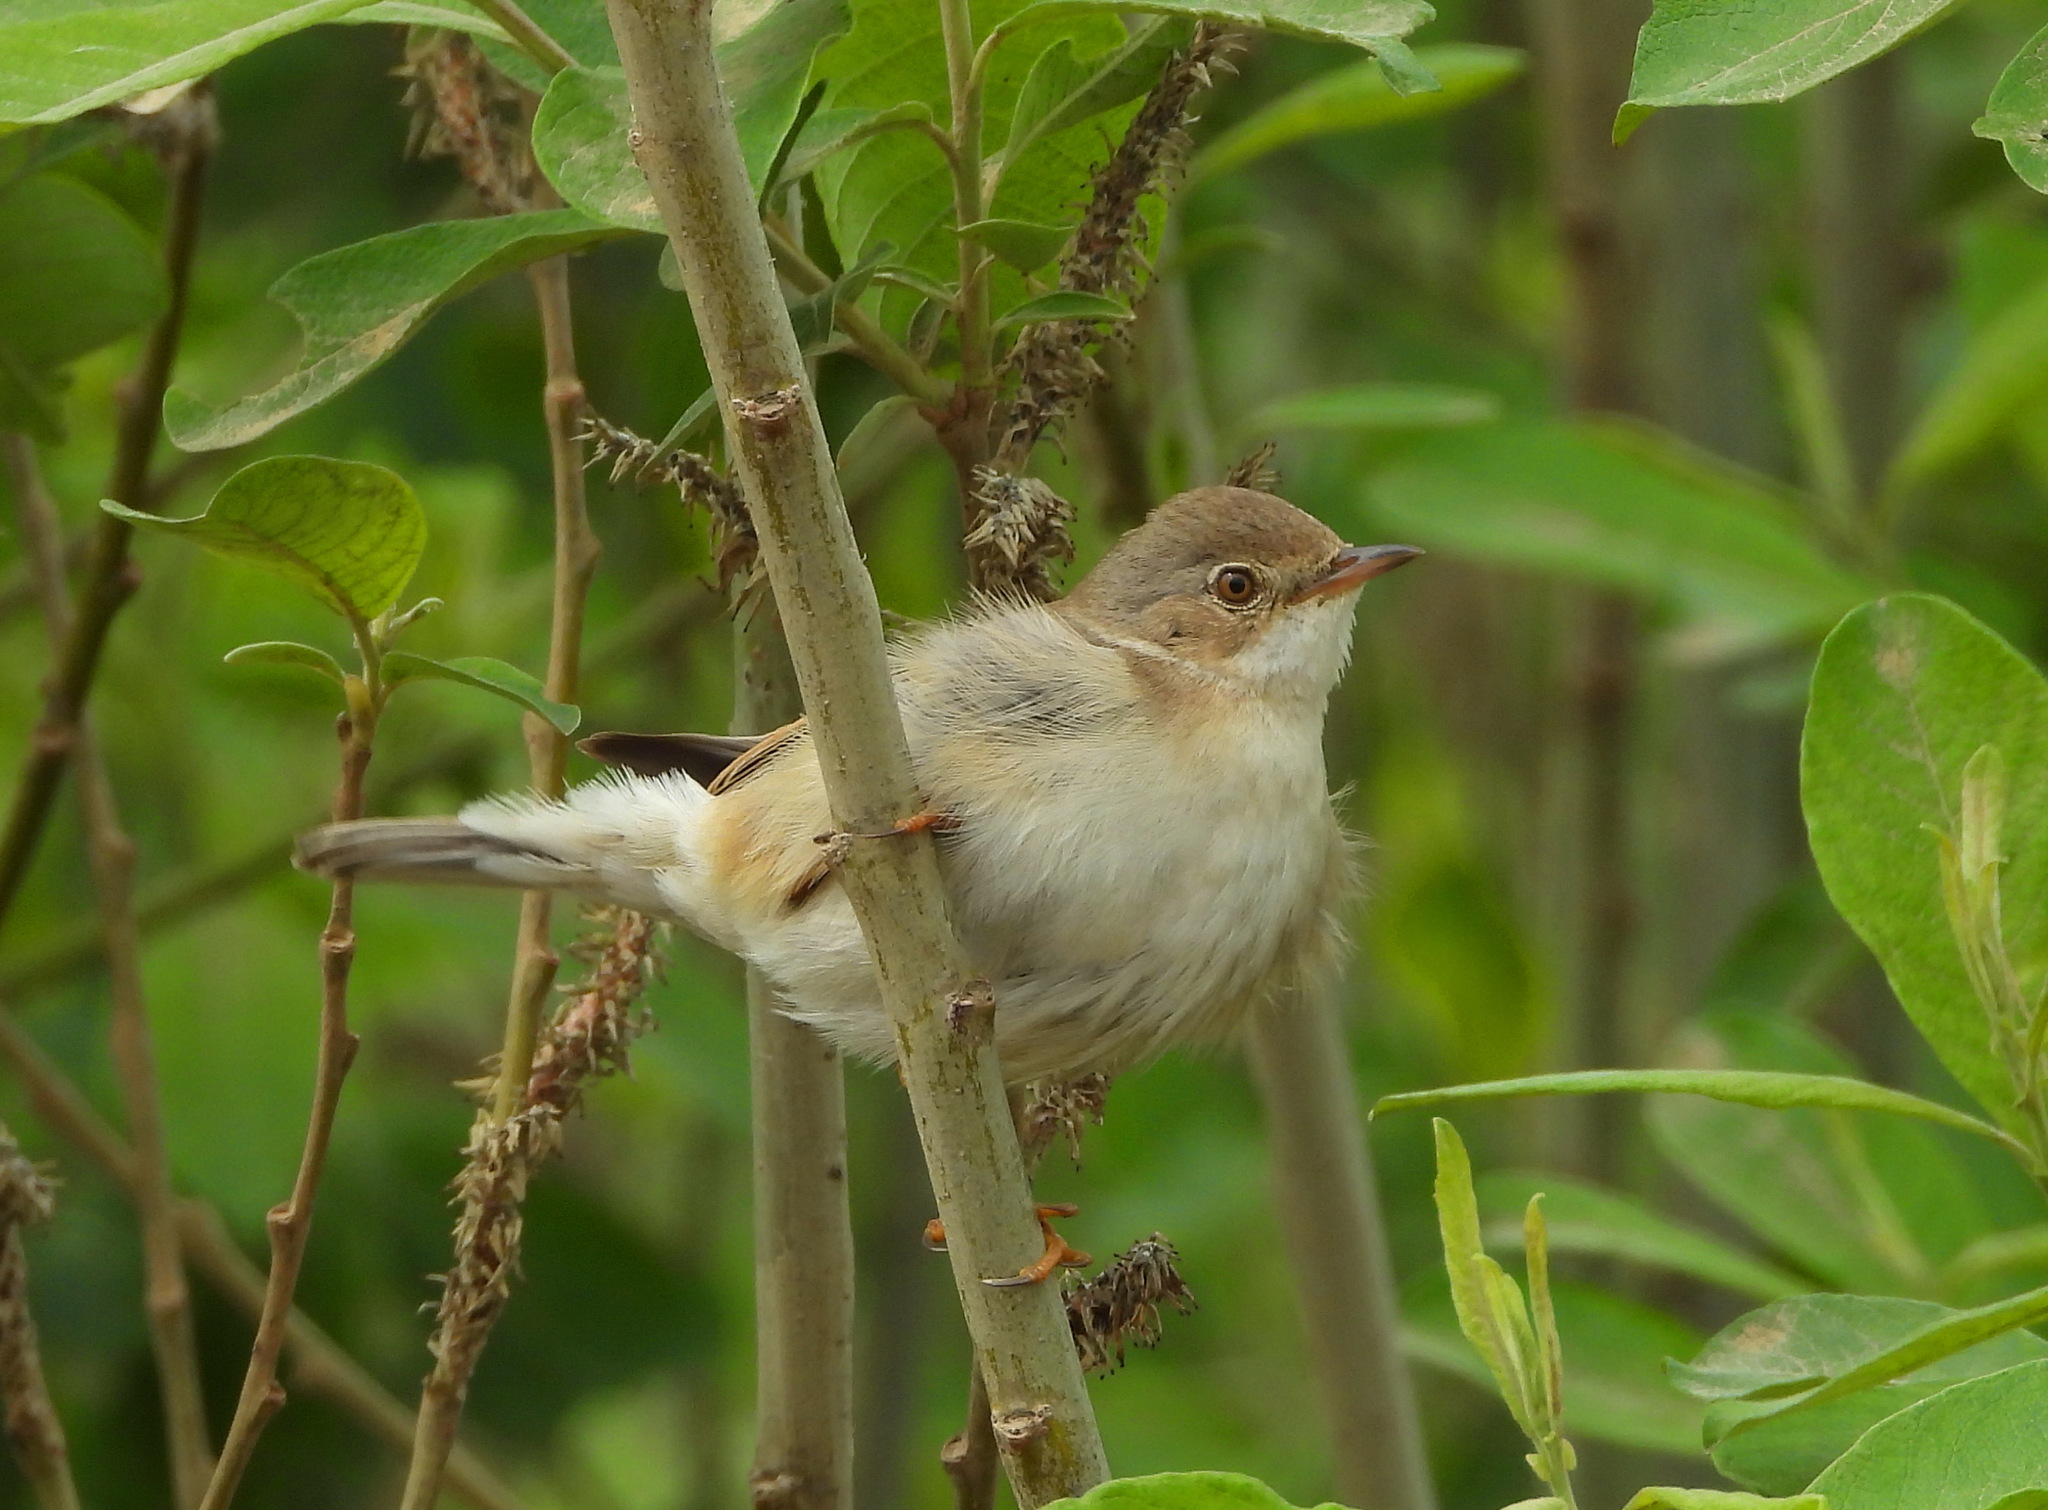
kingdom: Animalia
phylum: Chordata
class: Aves
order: Passeriformes
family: Sylviidae
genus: Sylvia
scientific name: Sylvia communis
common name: Common whitethroat
